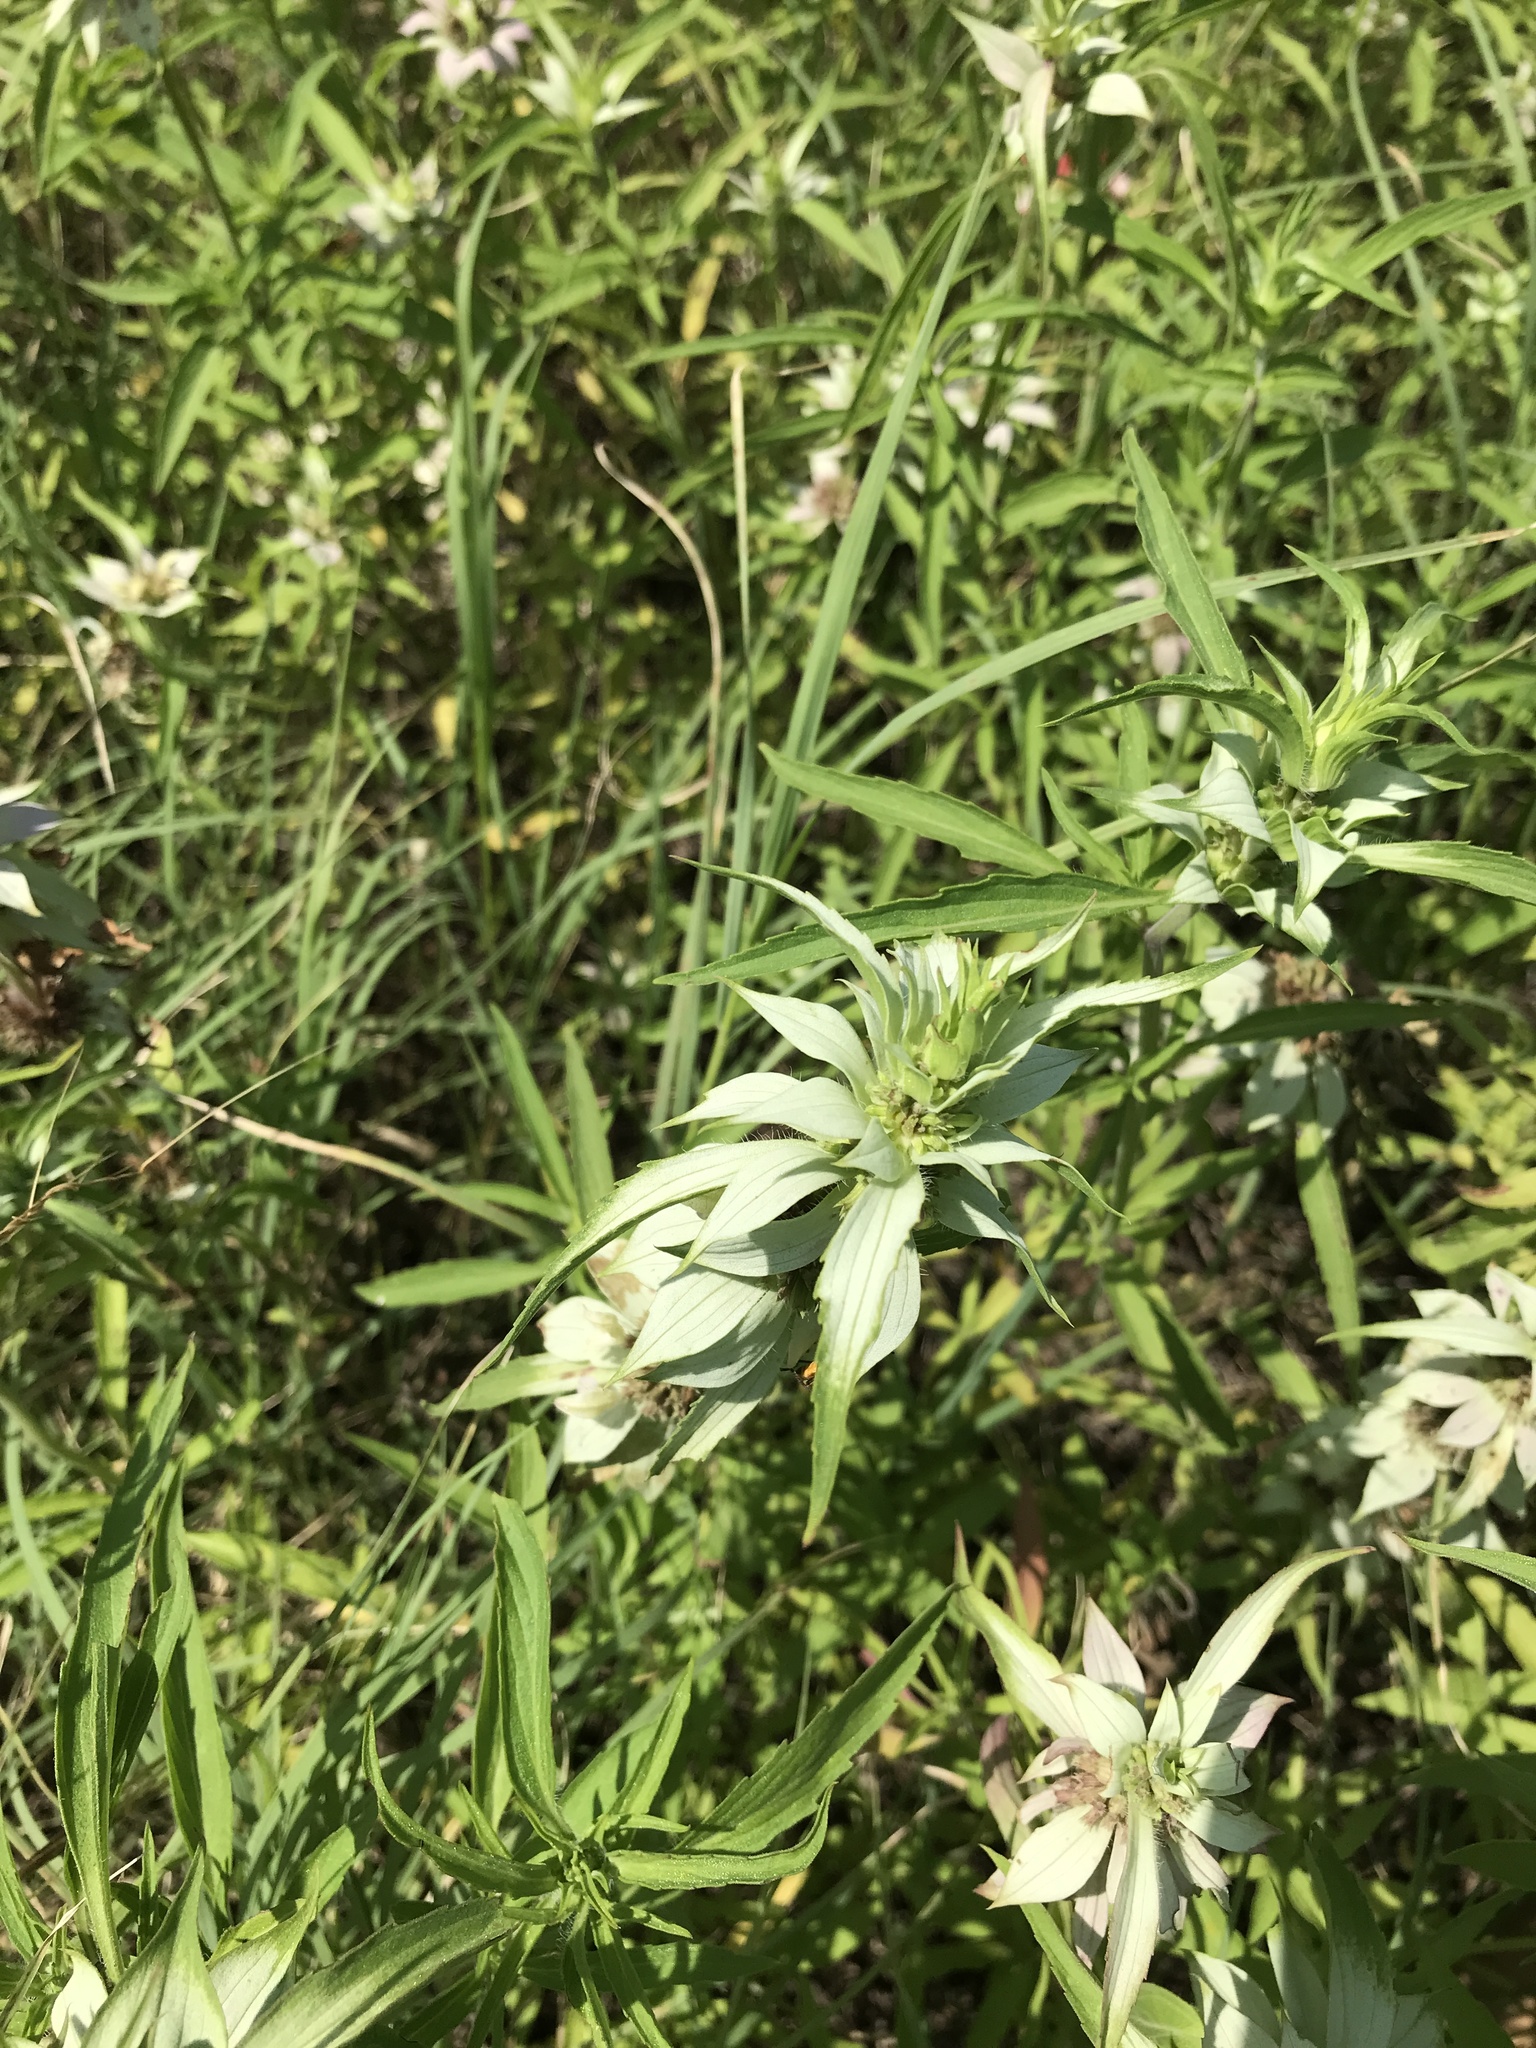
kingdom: Plantae
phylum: Tracheophyta
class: Magnoliopsida
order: Lamiales
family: Lamiaceae
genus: Monarda
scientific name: Monarda punctata
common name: Dotted monarda
